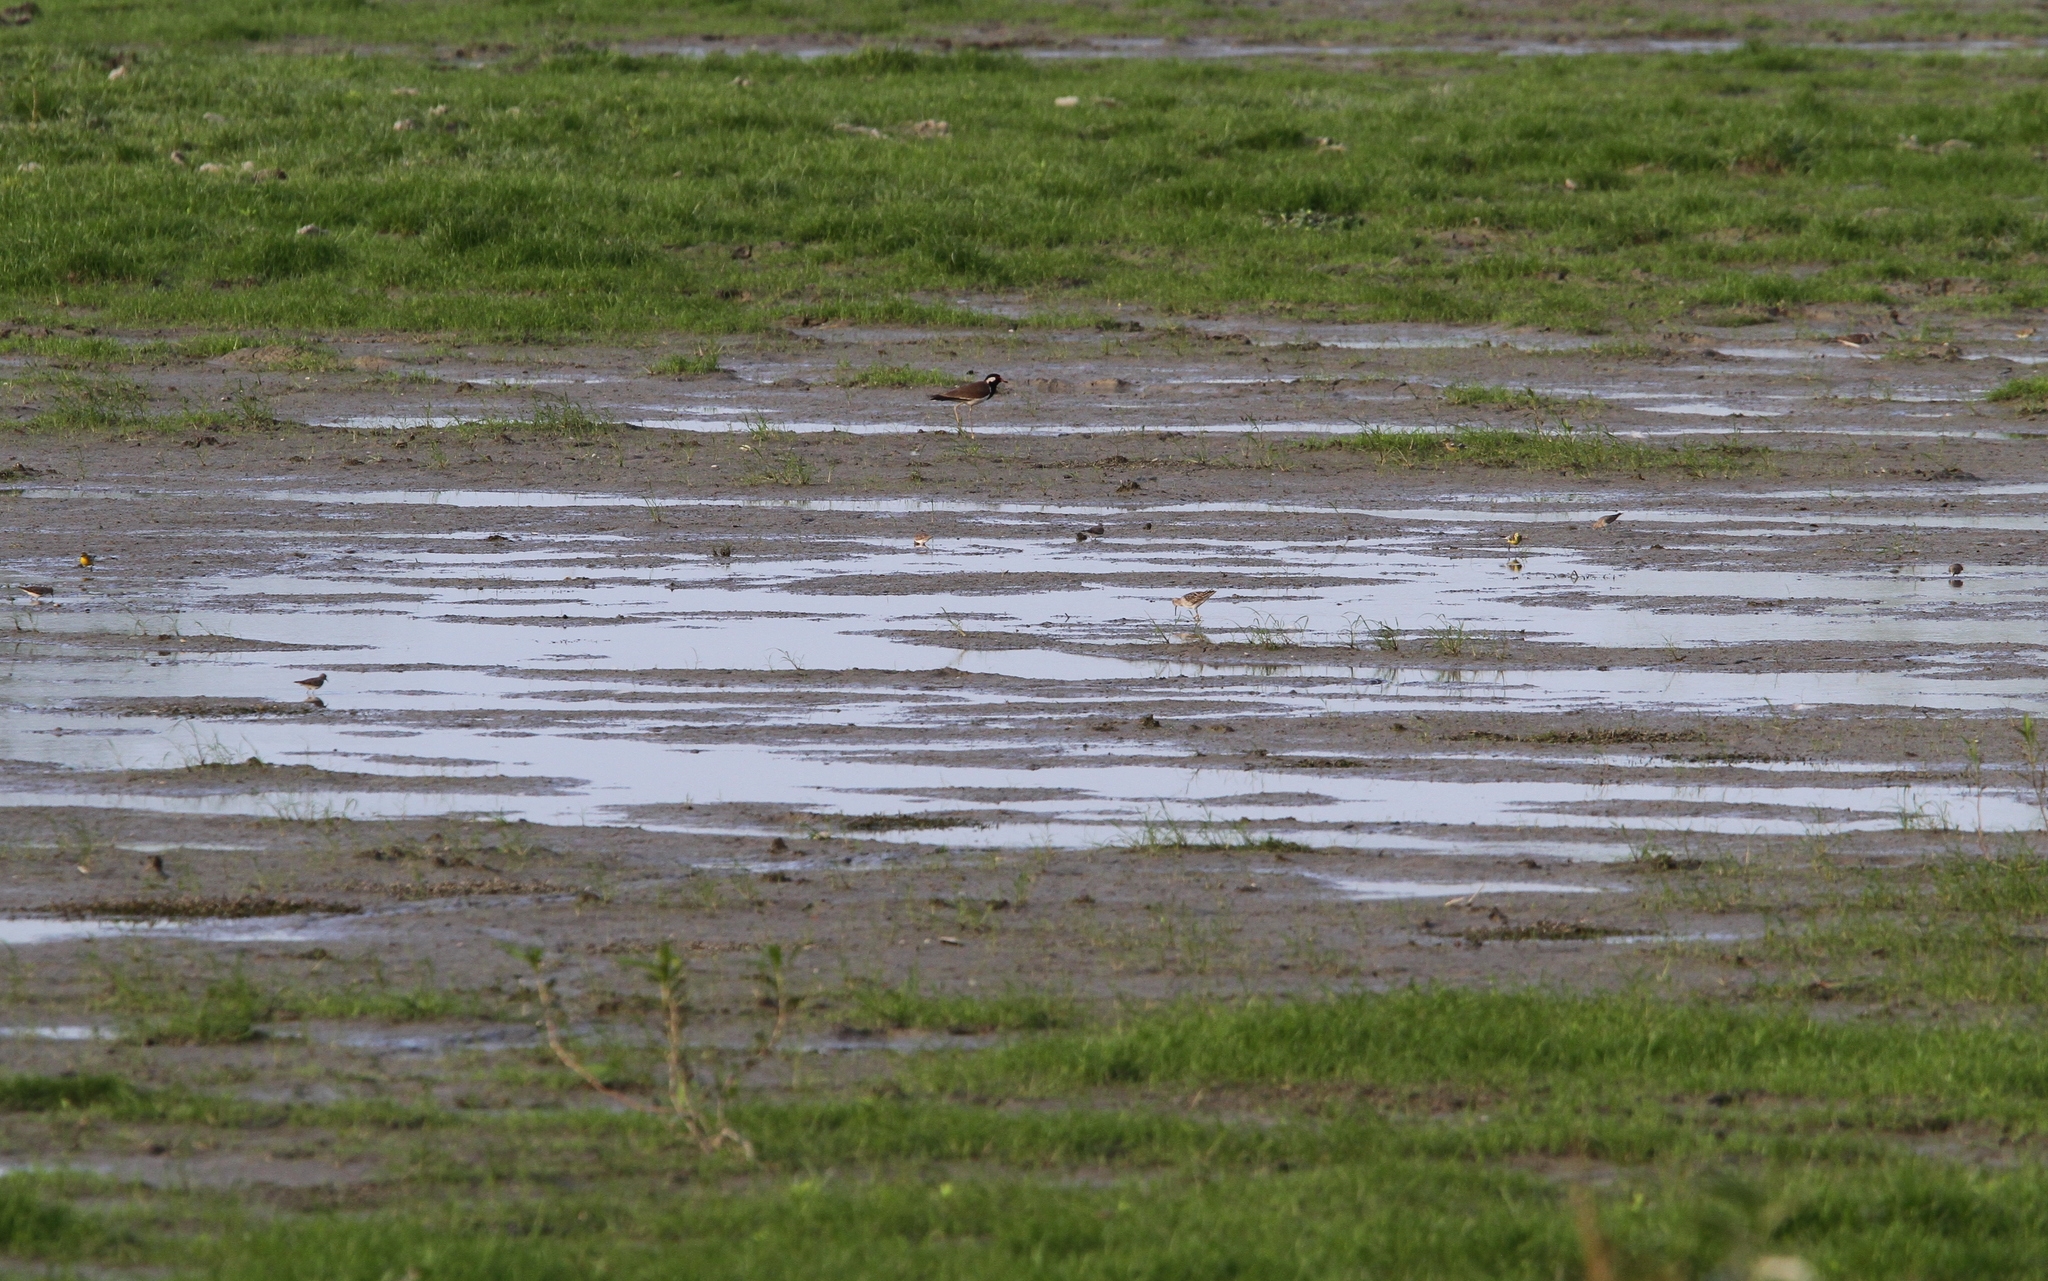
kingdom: Animalia
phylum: Chordata
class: Aves
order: Passeriformes
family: Motacillidae
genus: Motacilla
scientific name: Motacilla citreola
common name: Citrine wagtail
